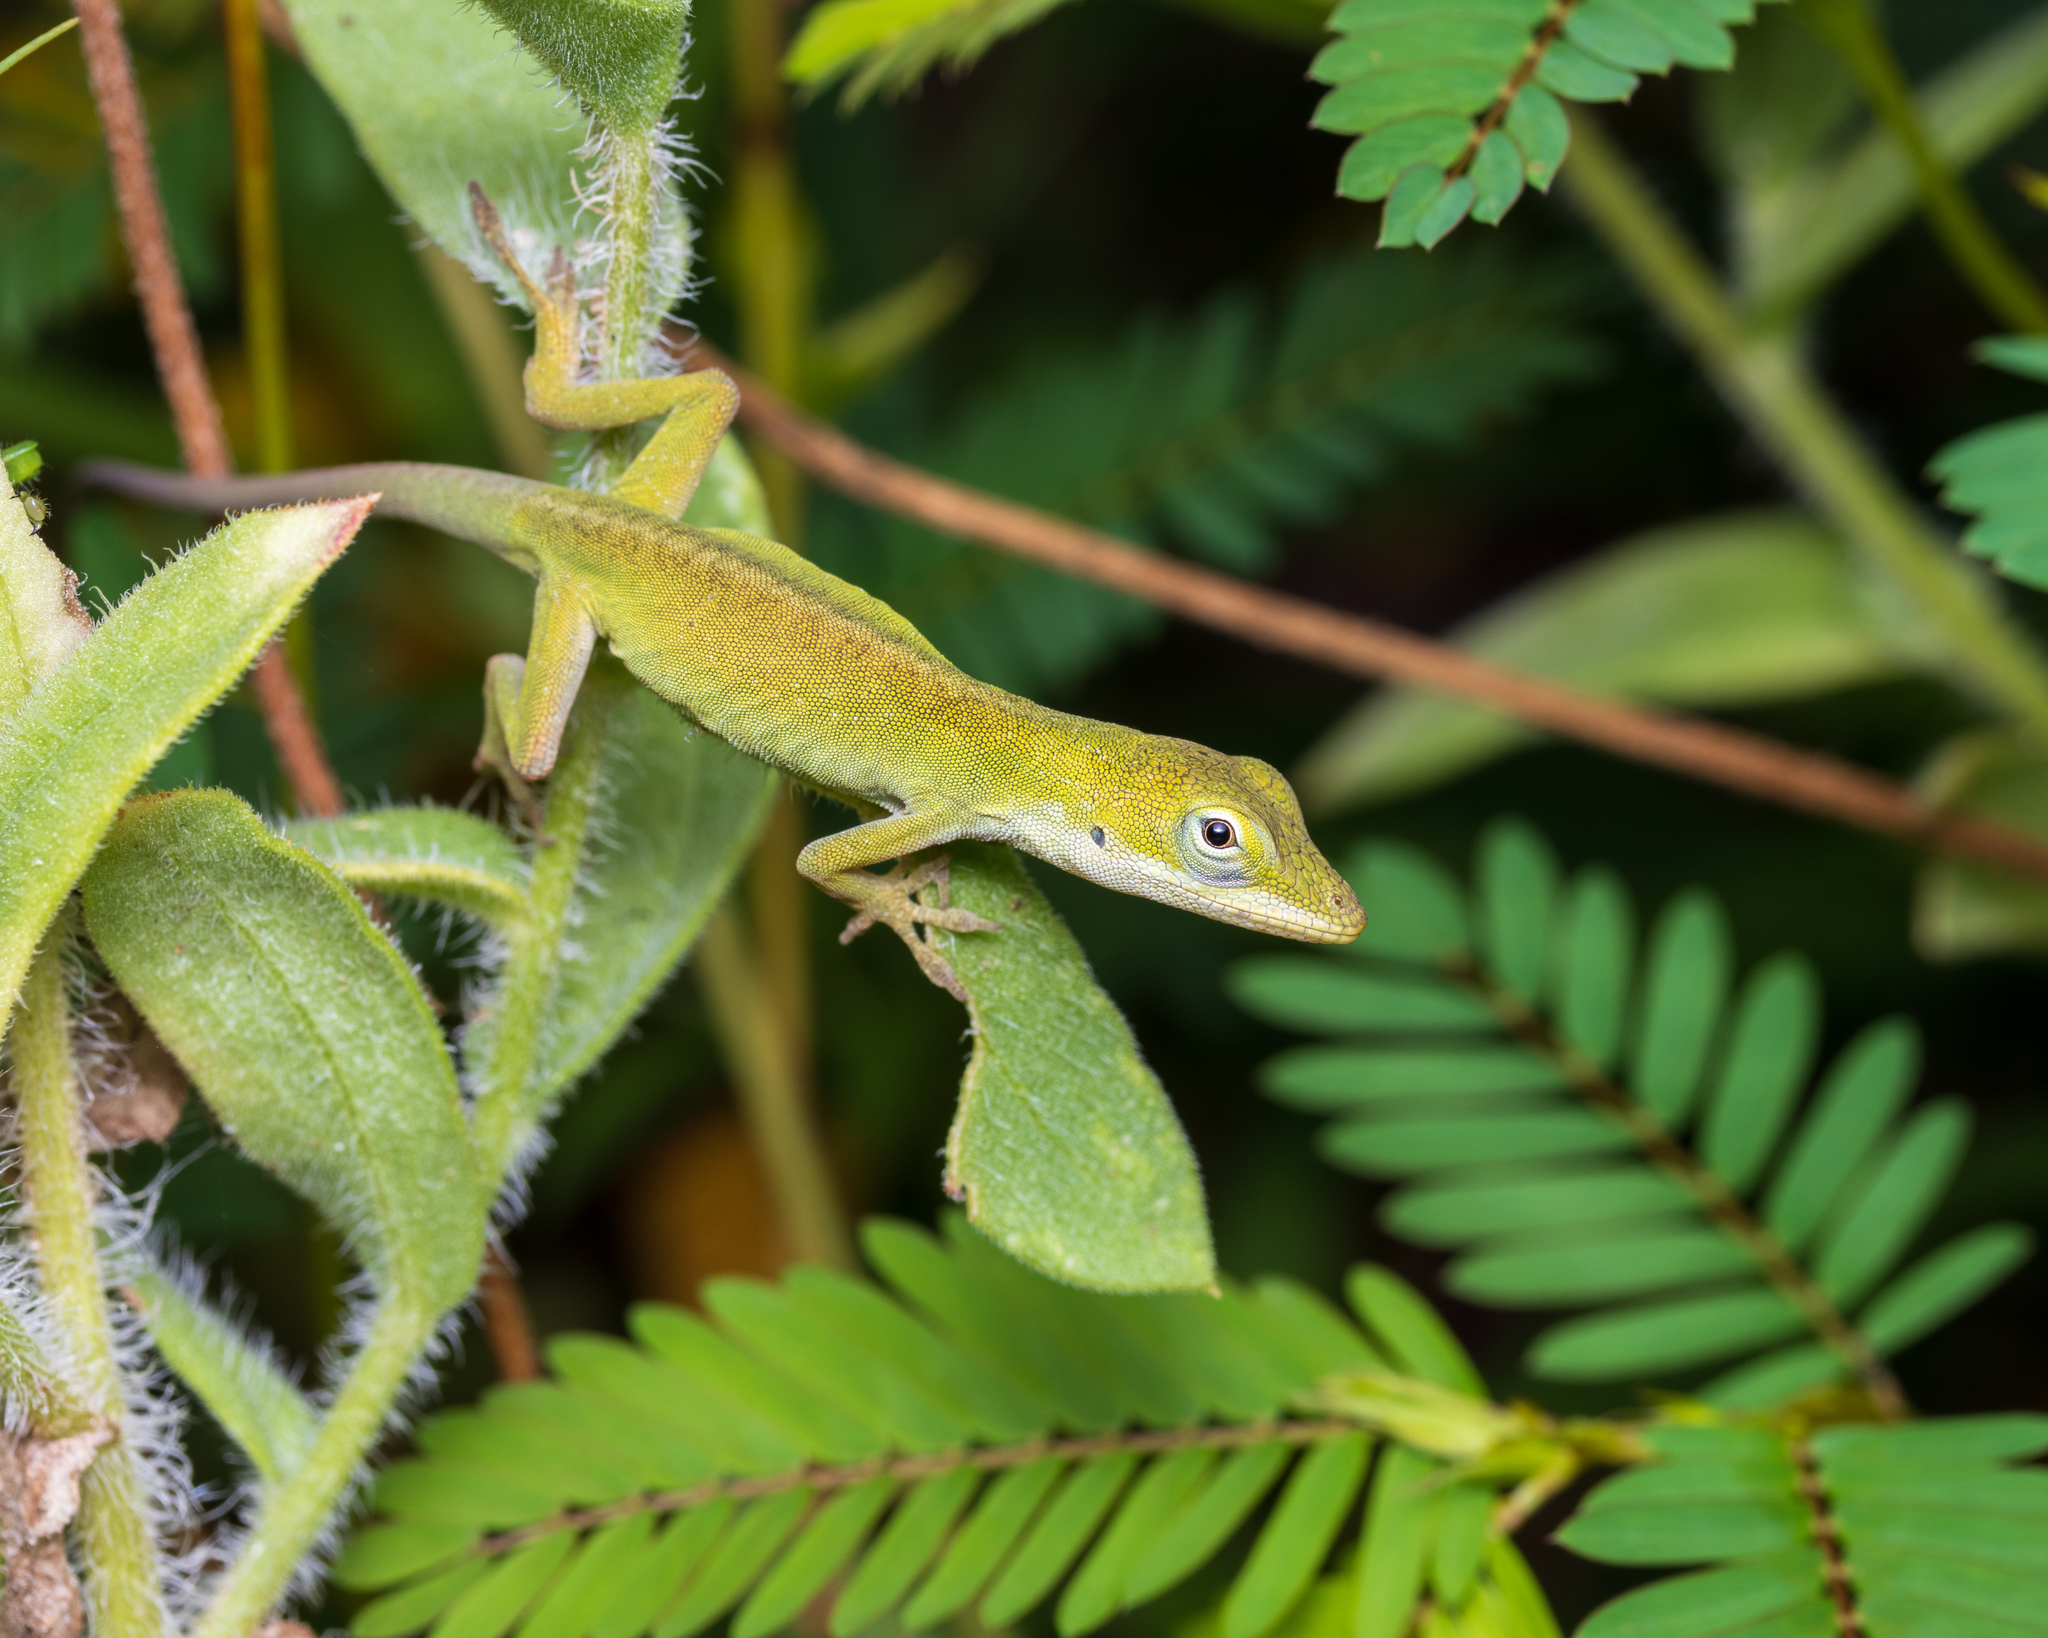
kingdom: Animalia
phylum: Chordata
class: Squamata
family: Dactyloidae
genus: Anolis
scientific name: Anolis carolinensis
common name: Green anole
